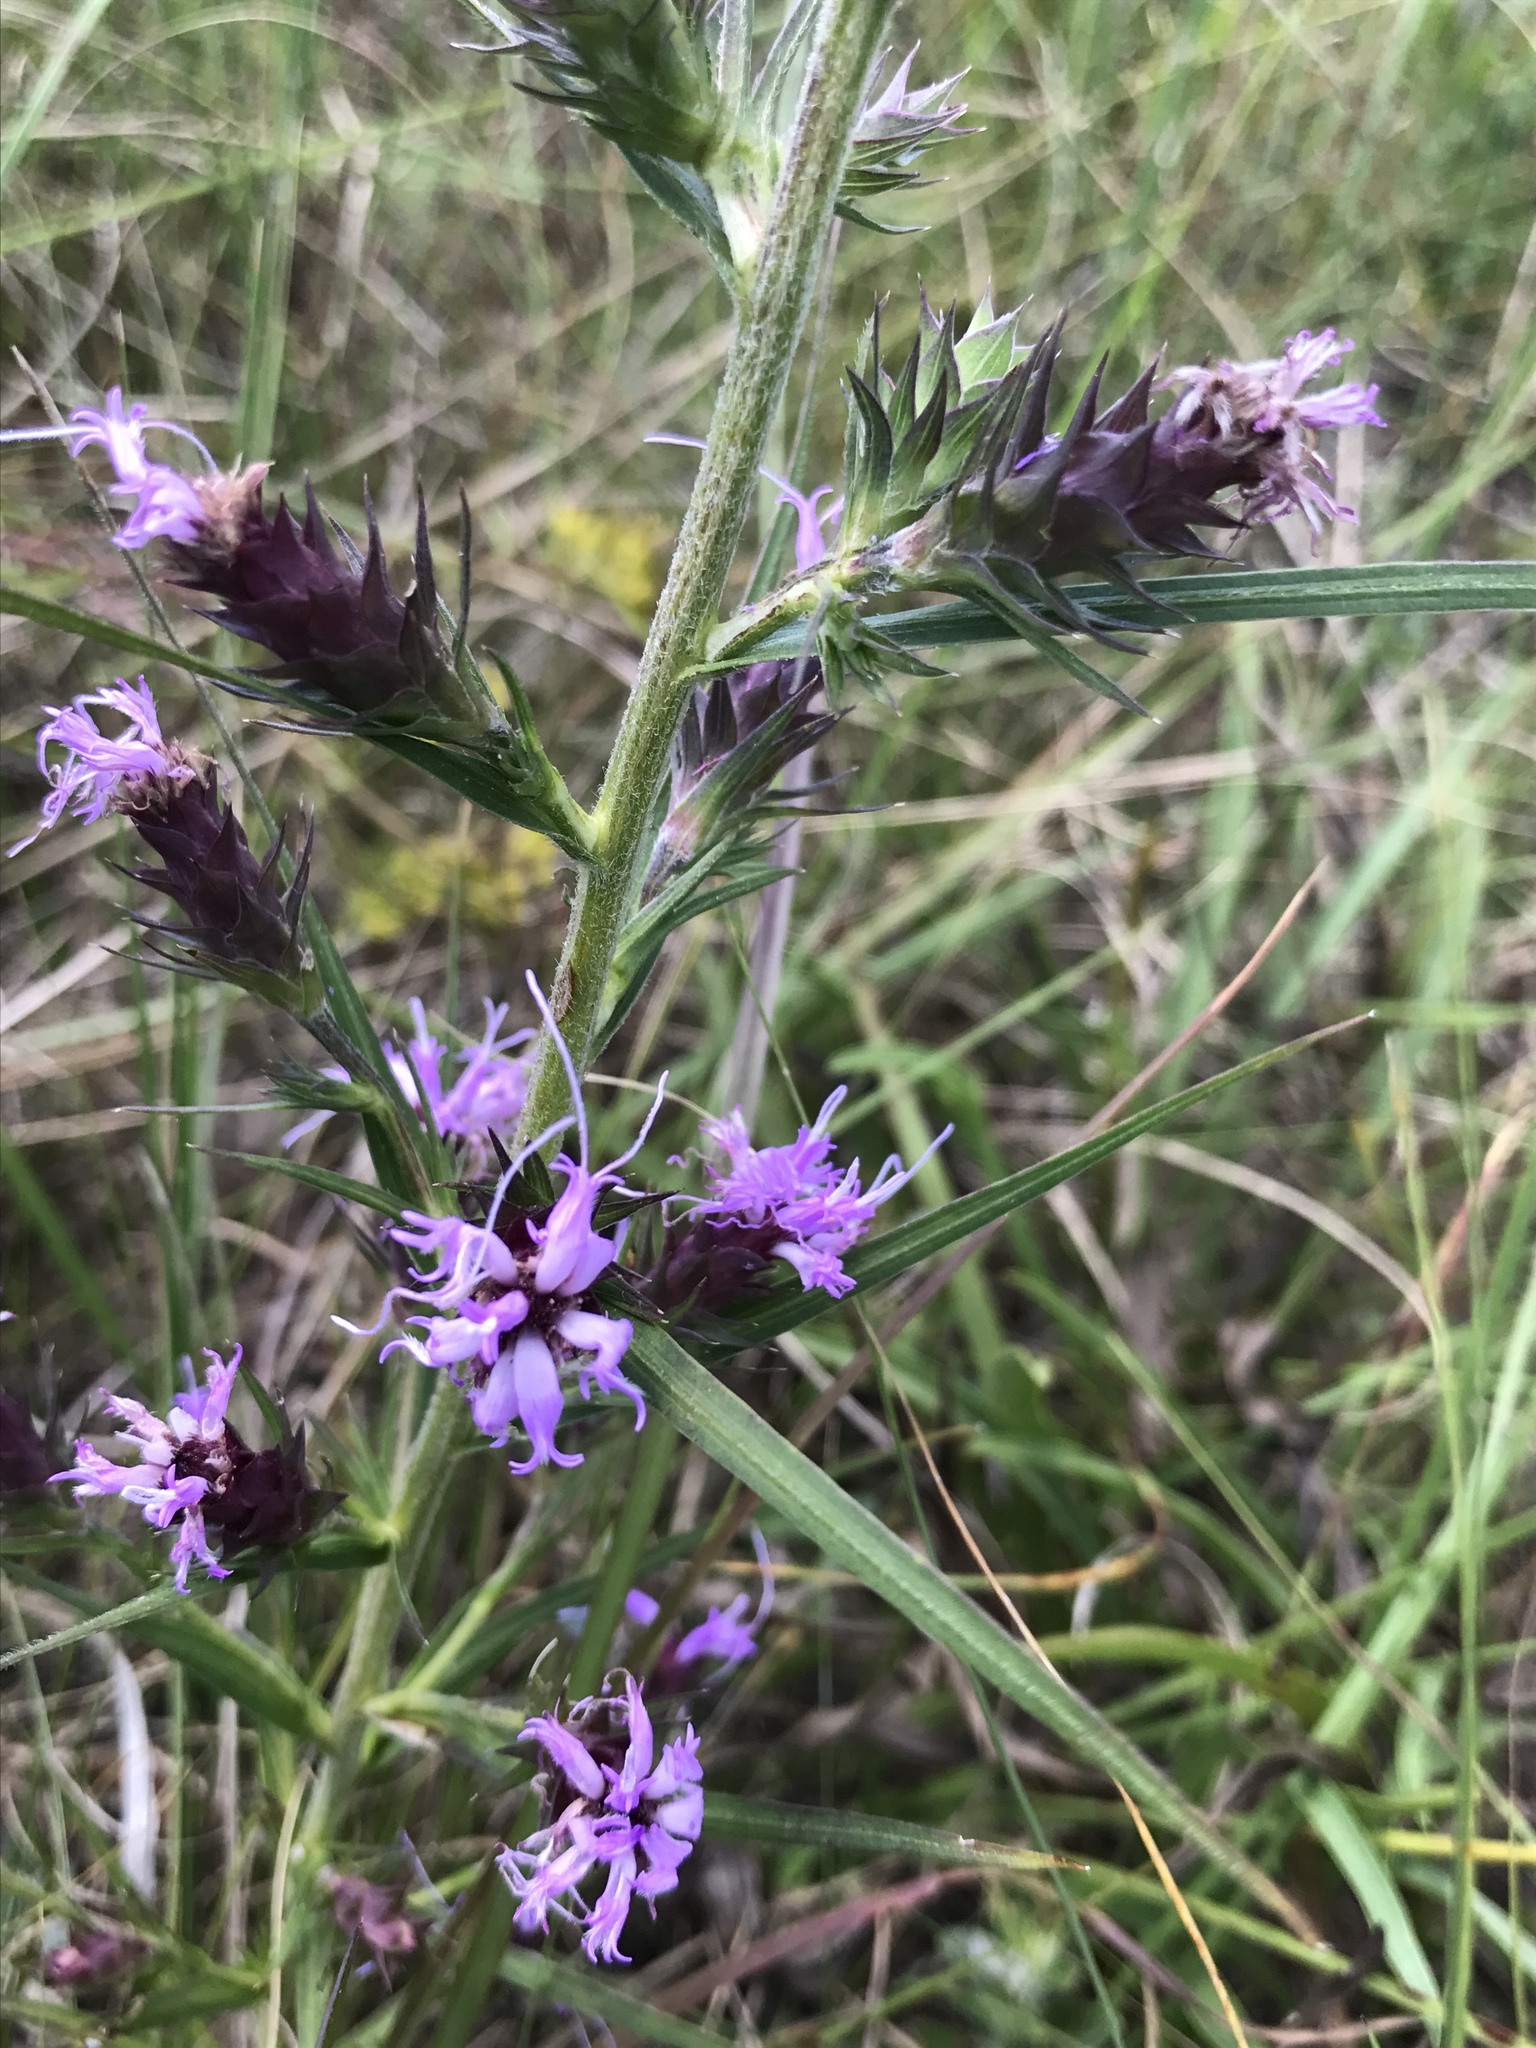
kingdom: Plantae
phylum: Tracheophyta
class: Magnoliopsida
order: Asterales
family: Asteraceae
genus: Liatris
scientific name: Liatris squarrosa
